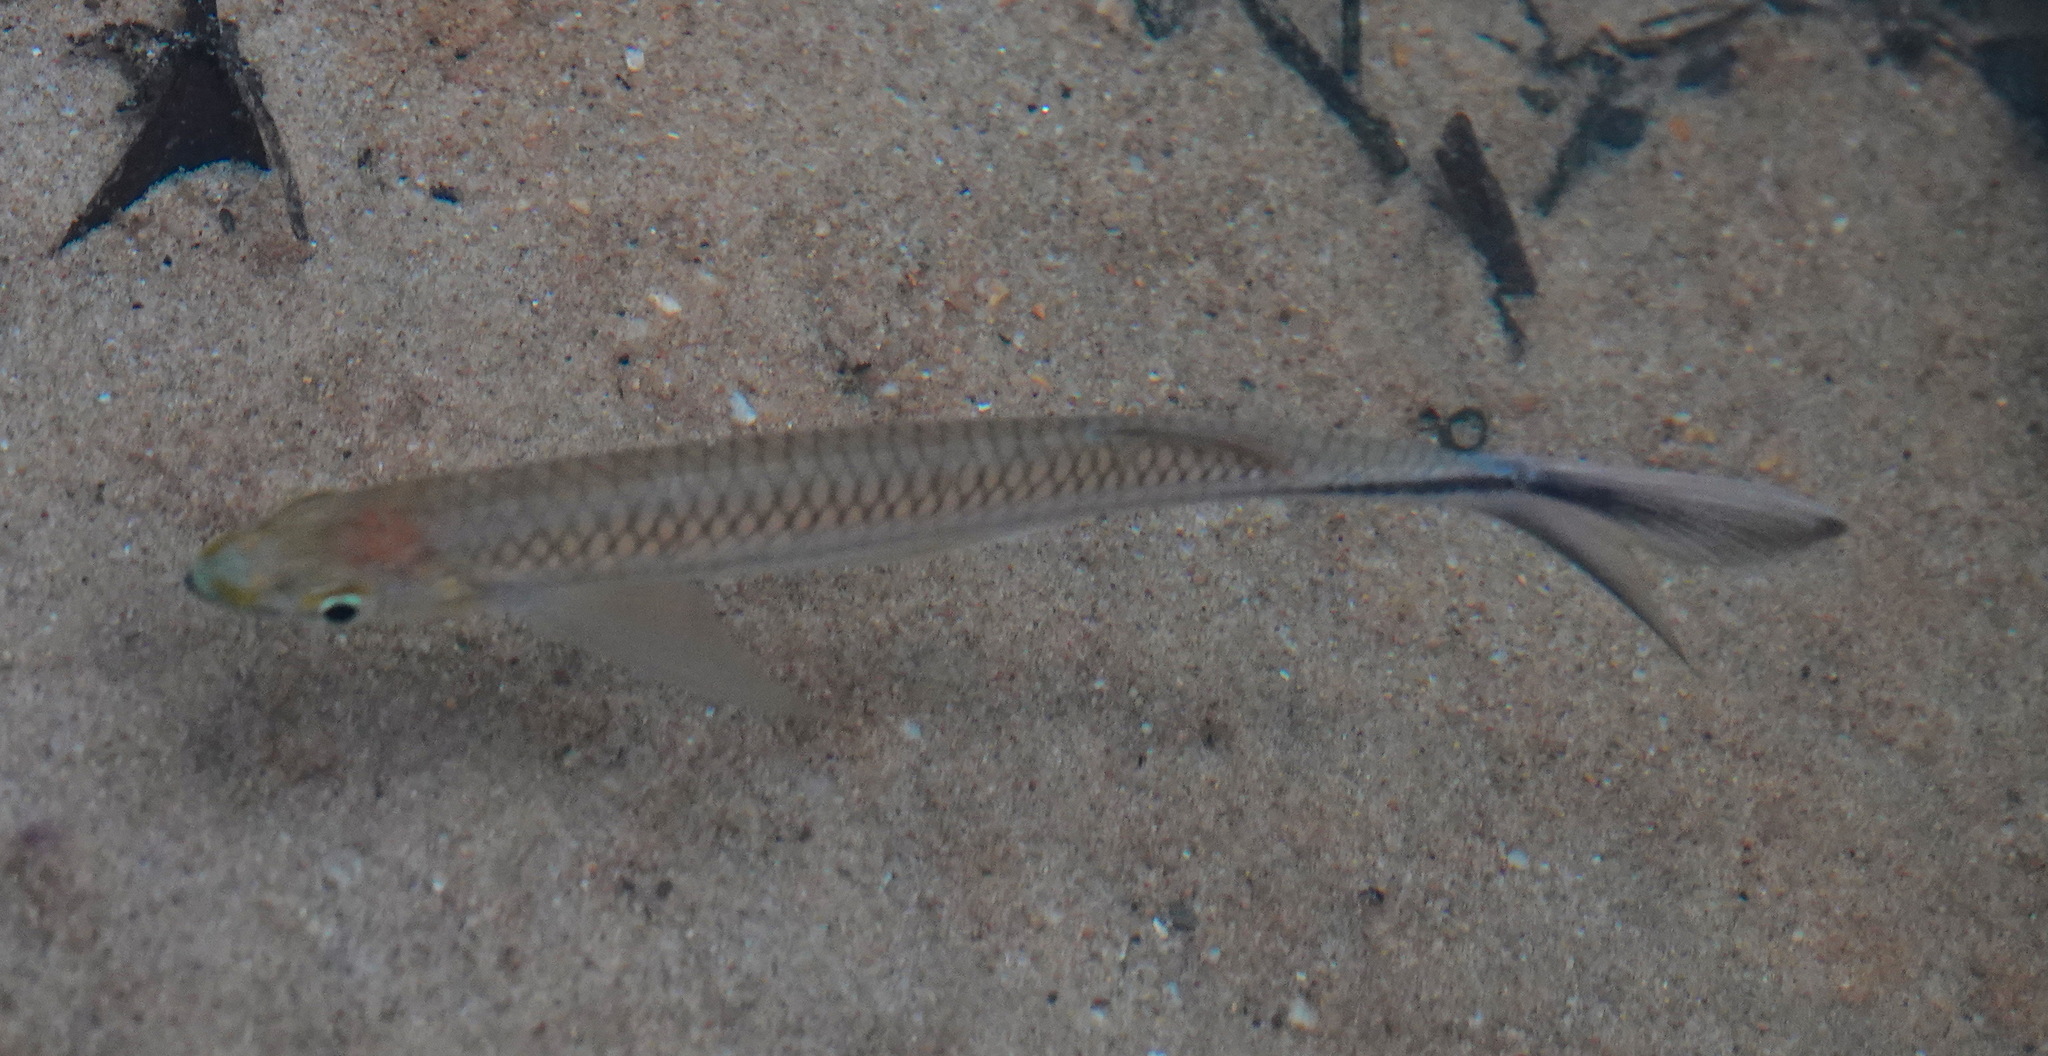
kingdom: Animalia
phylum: Chordata
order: Cypriniformes
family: Cyprinidae
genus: Luciosoma
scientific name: Luciosoma setigerum
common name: Apollo sharkminnow
